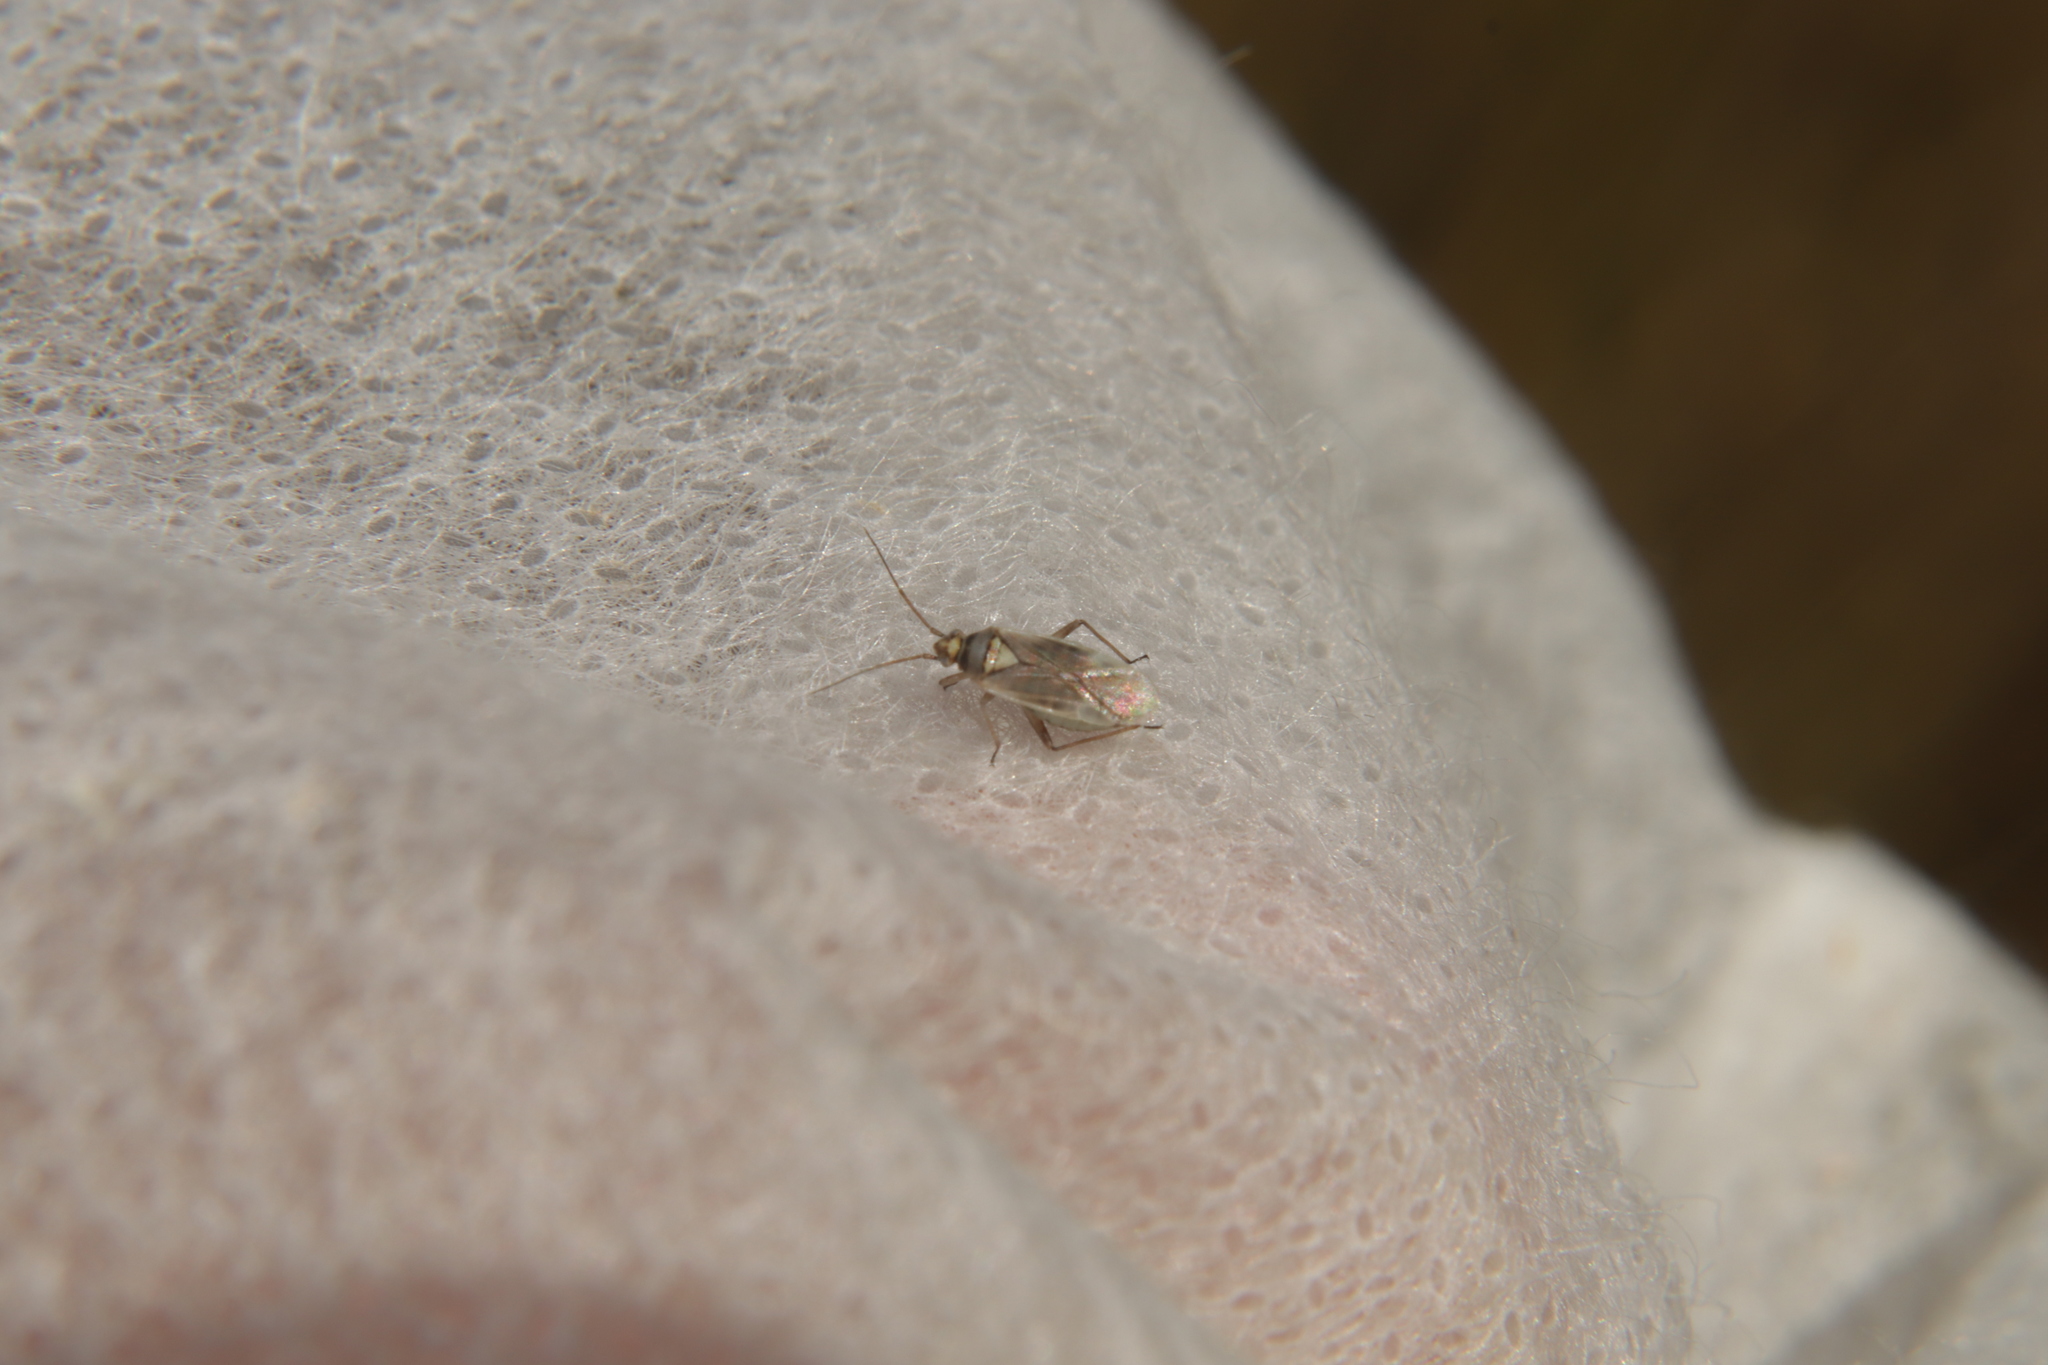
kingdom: Animalia
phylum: Arthropoda
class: Insecta
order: Hemiptera
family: Miridae
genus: Lopus
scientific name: Lopus decolor
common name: Plant bug
